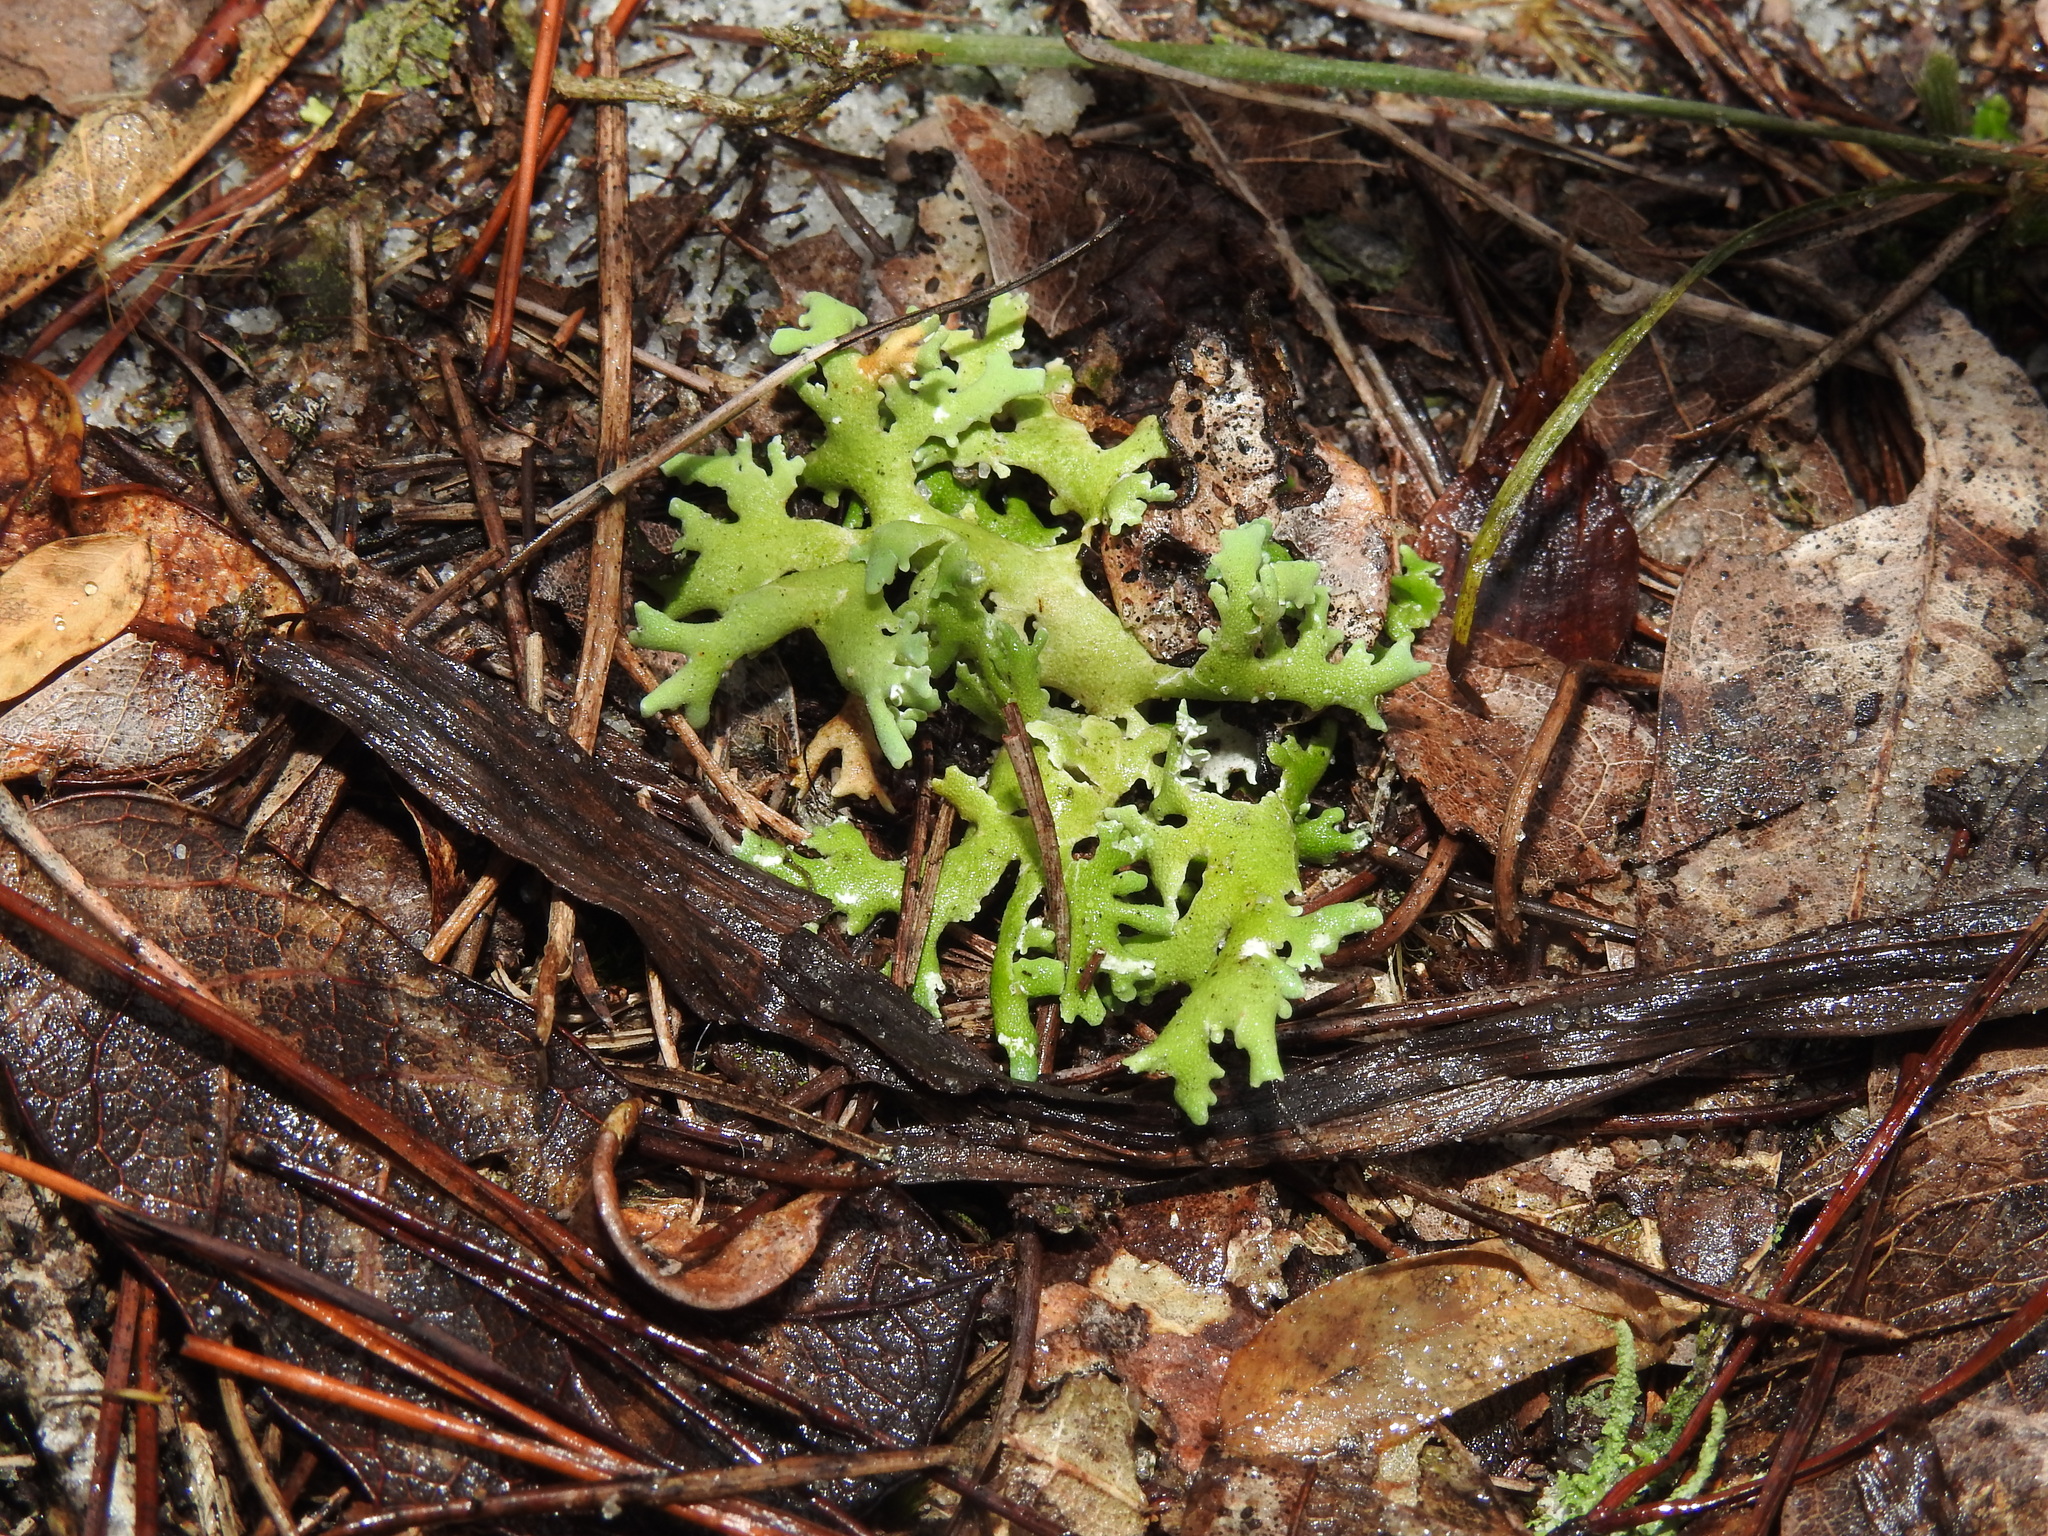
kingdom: Fungi
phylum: Ascomycota
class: Lecanoromycetes
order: Lecanorales
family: Cladoniaceae
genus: Cladonia
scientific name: Cladonia prostrata
